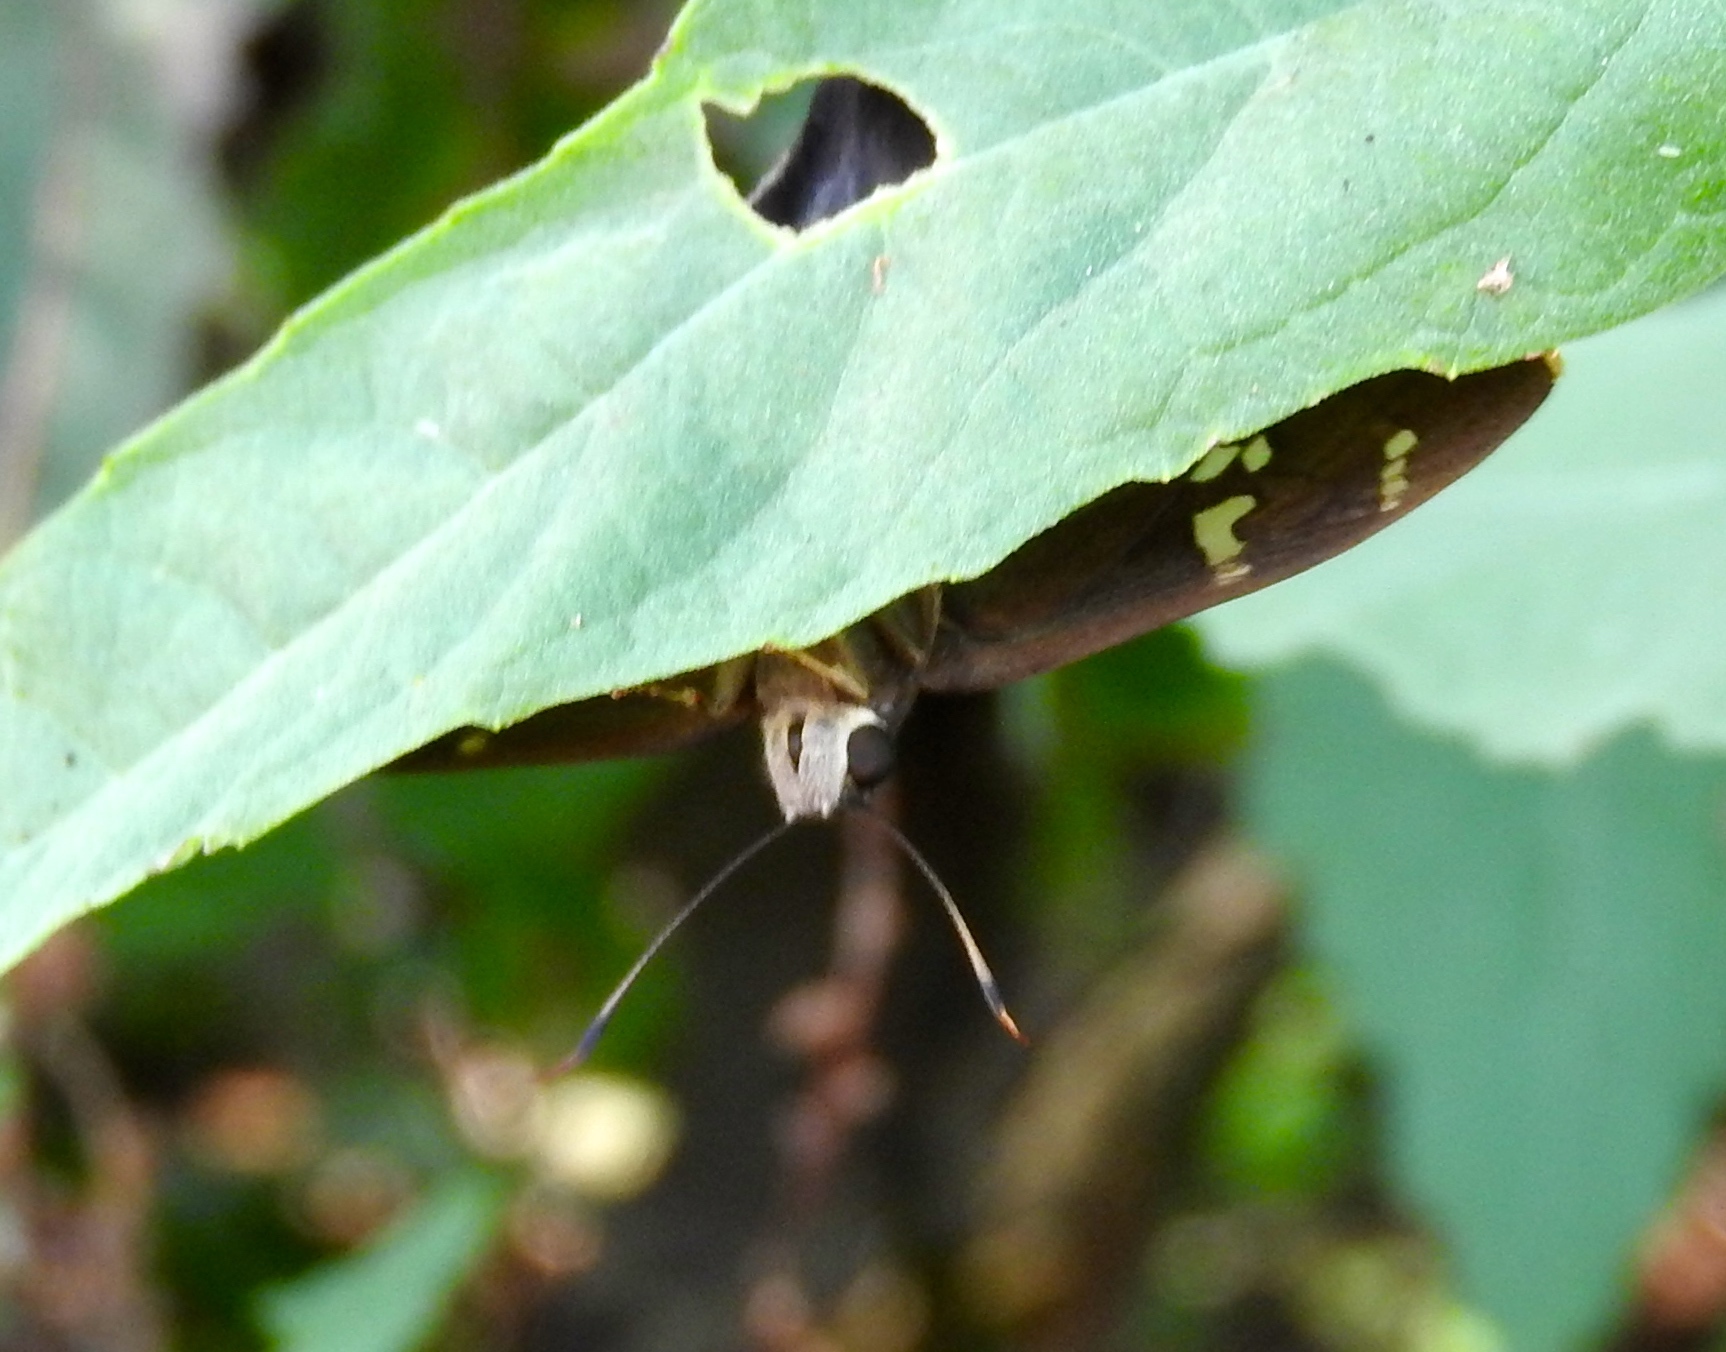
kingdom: Animalia
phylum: Arthropoda
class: Insecta
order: Lepidoptera
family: Hesperiidae
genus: Ectomis
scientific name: Ectomis
